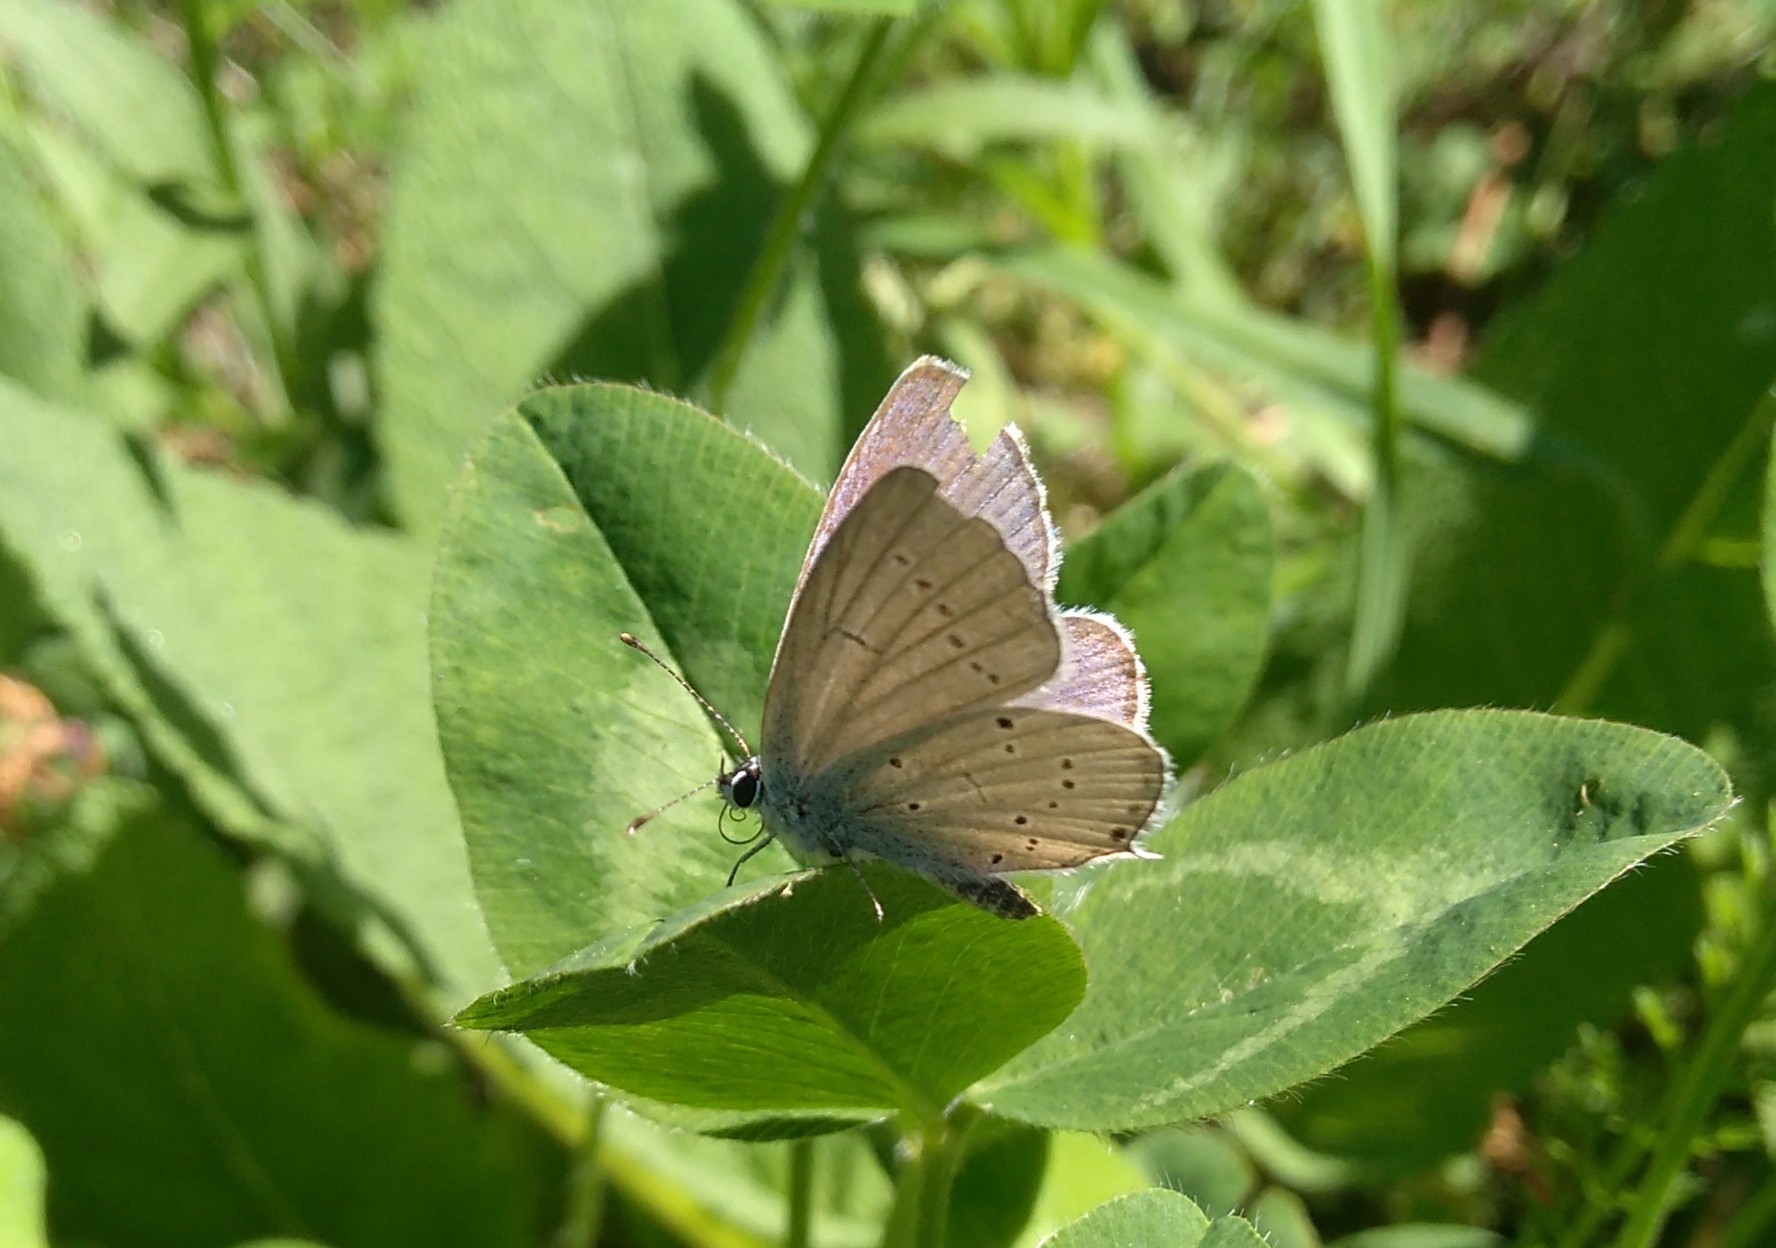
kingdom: Animalia
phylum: Arthropoda
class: Insecta
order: Lepidoptera
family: Lycaenidae
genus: Elkalyce
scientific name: Elkalyce alcetas
